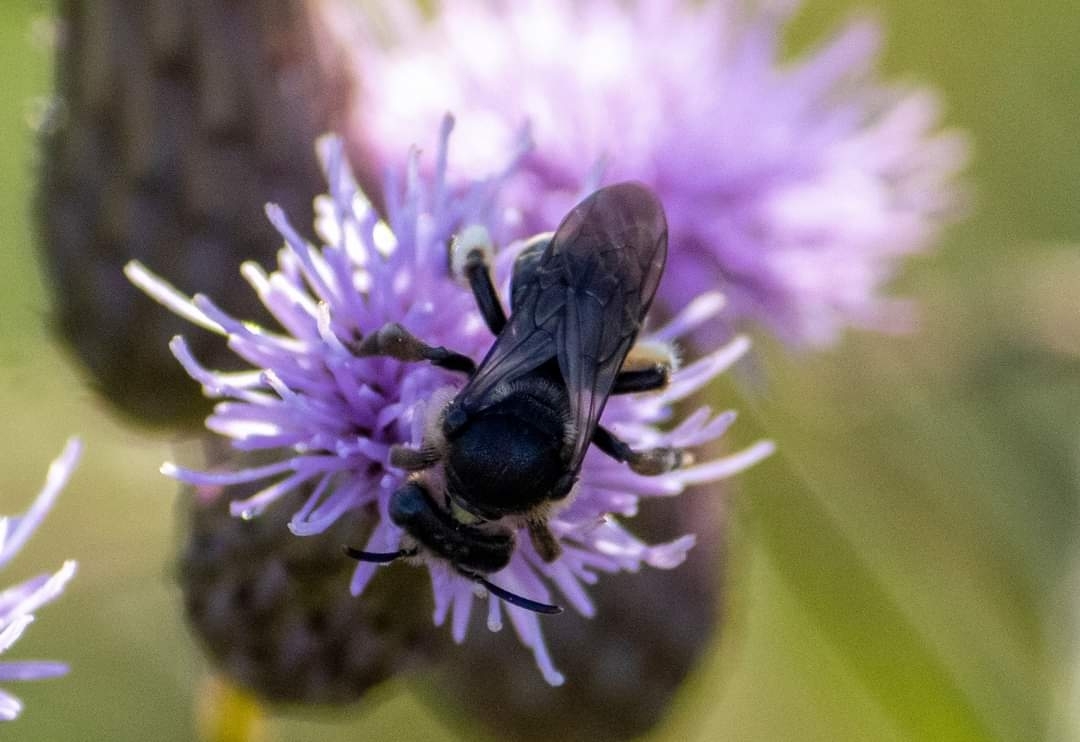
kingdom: Animalia
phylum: Arthropoda
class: Insecta
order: Hymenoptera
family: Melittidae
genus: Macropis
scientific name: Macropis europaea
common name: Yellow loosestrife bee
